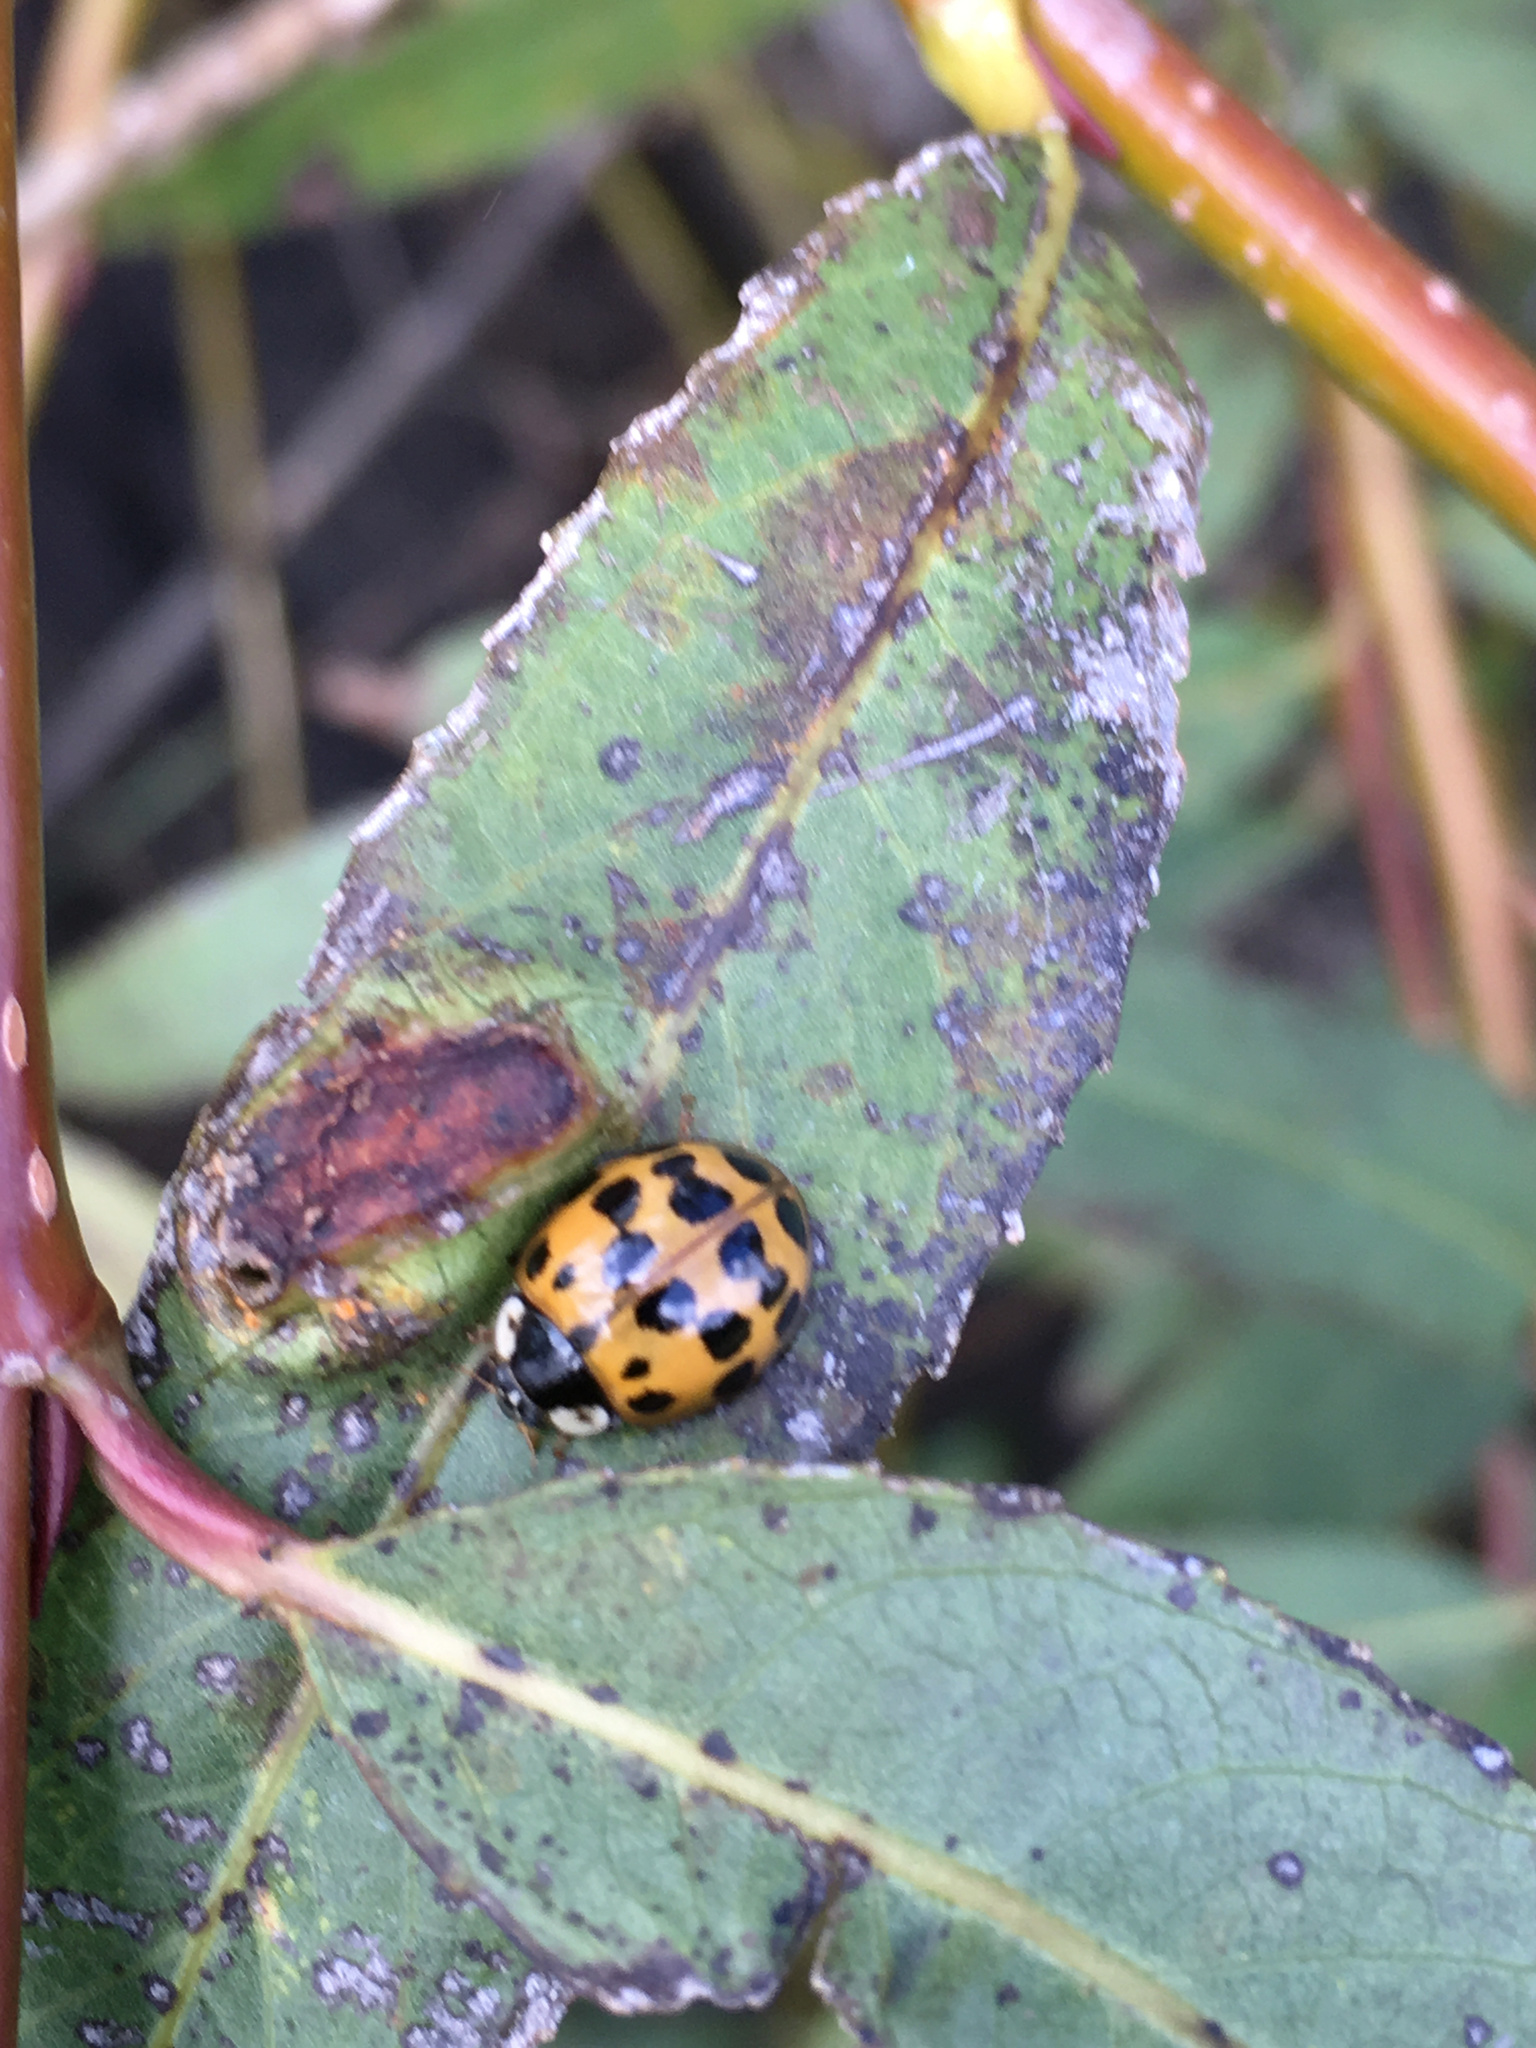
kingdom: Animalia
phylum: Arthropoda
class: Insecta
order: Coleoptera
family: Coccinellidae
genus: Harmonia
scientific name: Harmonia axyridis
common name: Harlequin ladybird
